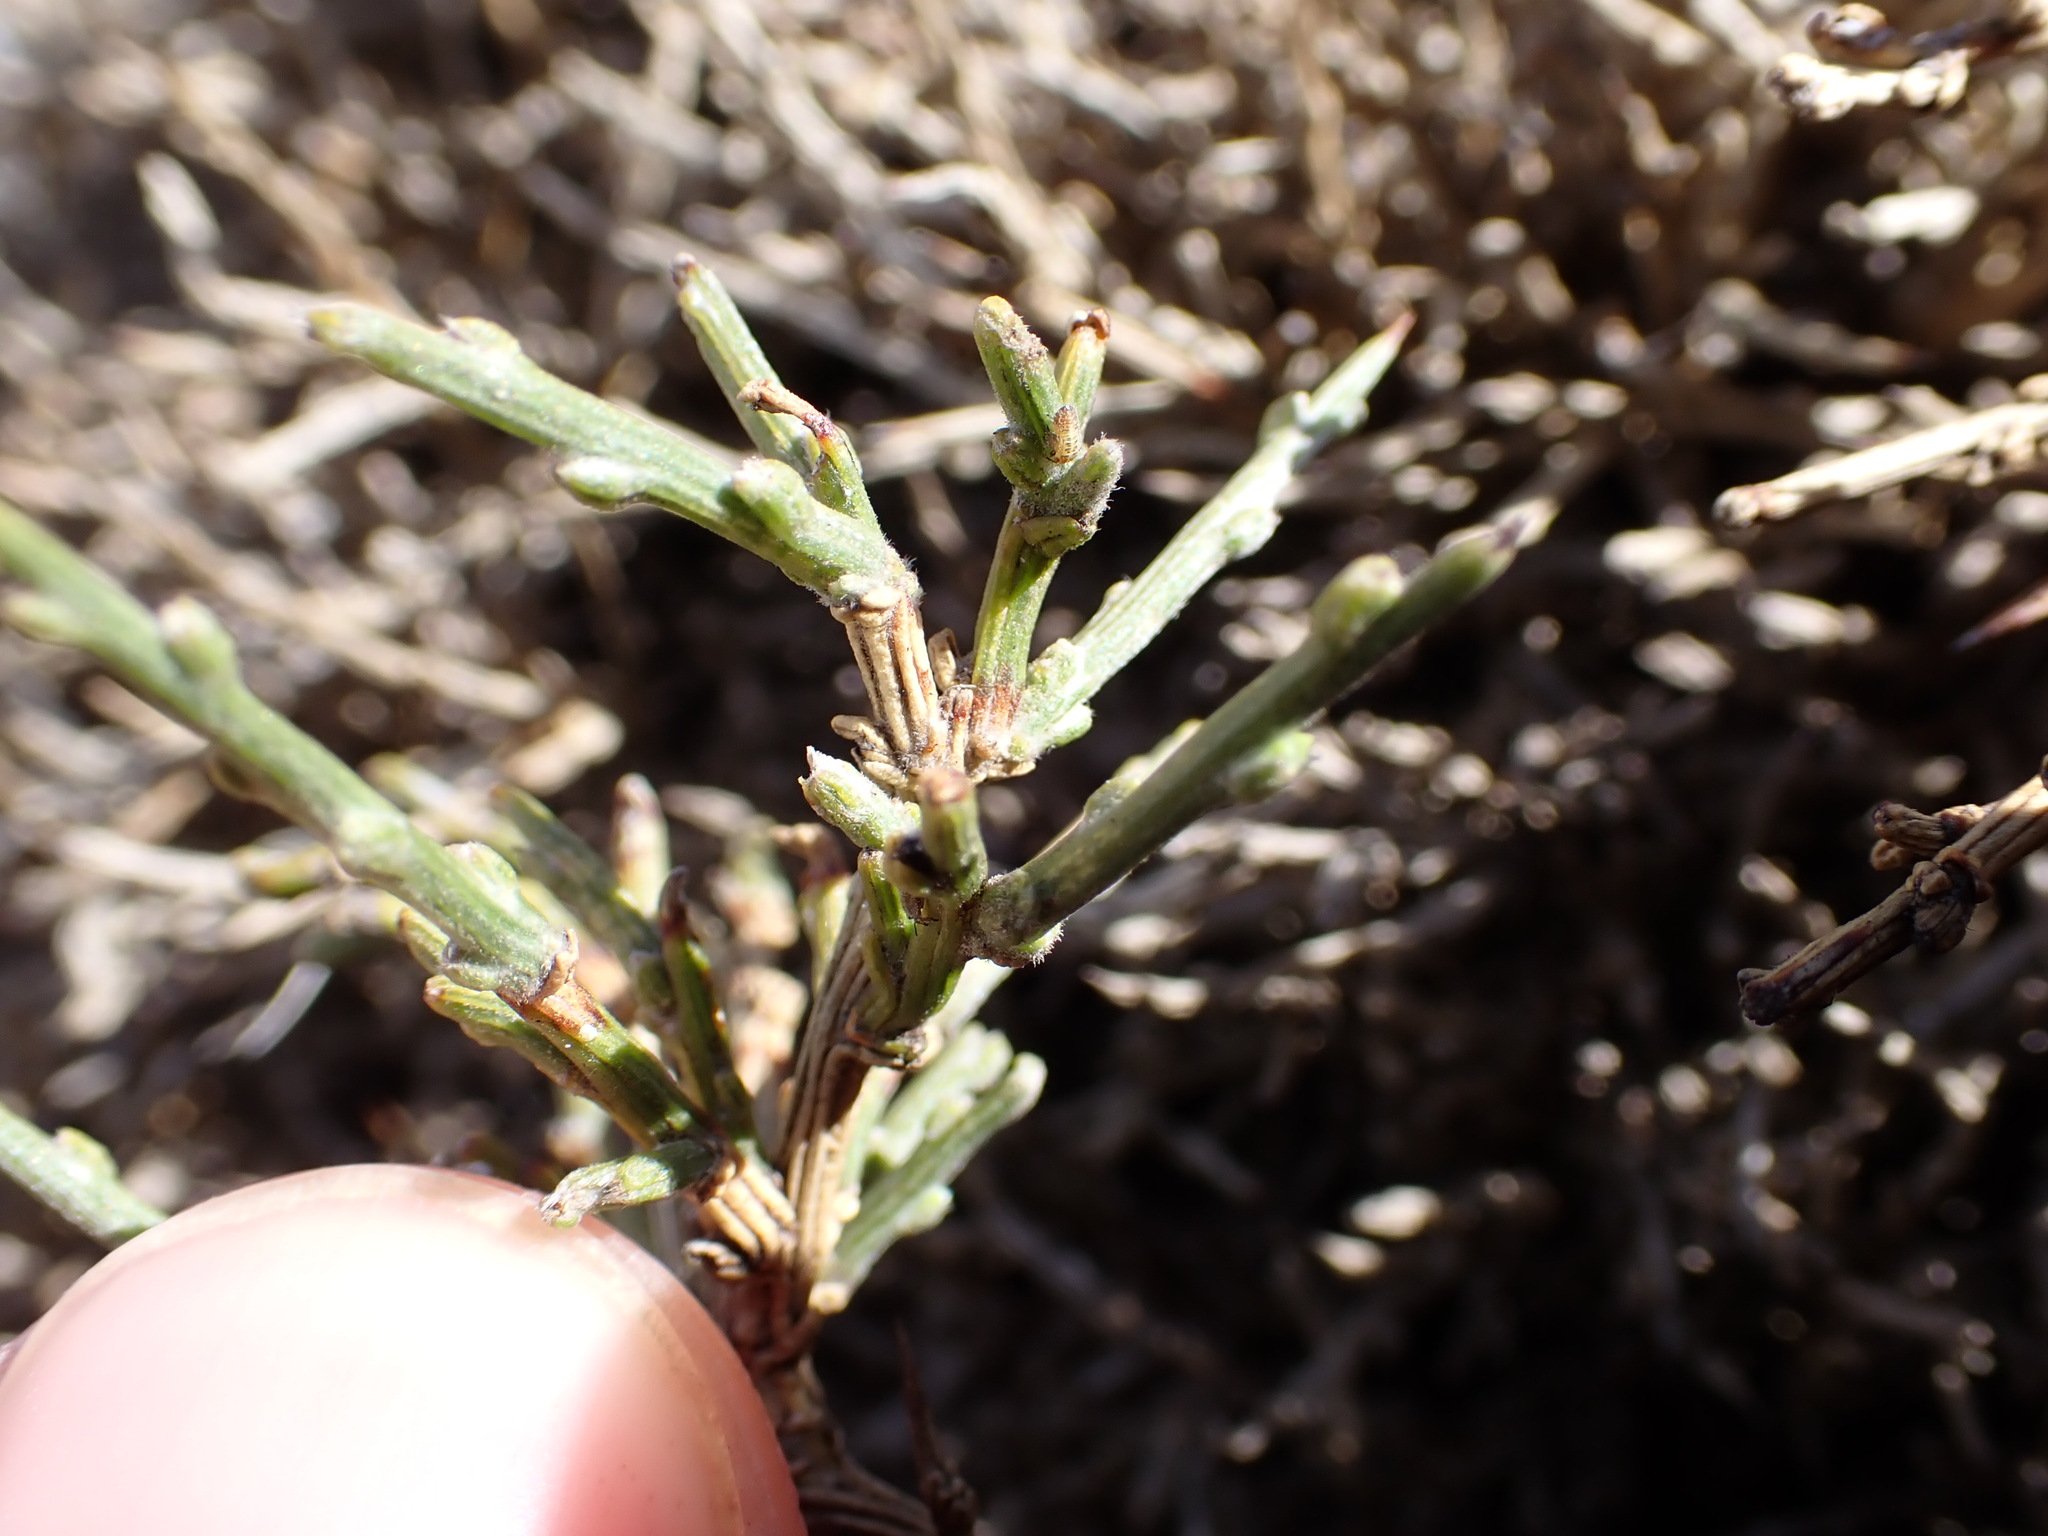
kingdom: Plantae
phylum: Tracheophyta
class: Magnoliopsida
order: Fabales
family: Fabaceae
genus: Genista
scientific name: Genista lobelii
